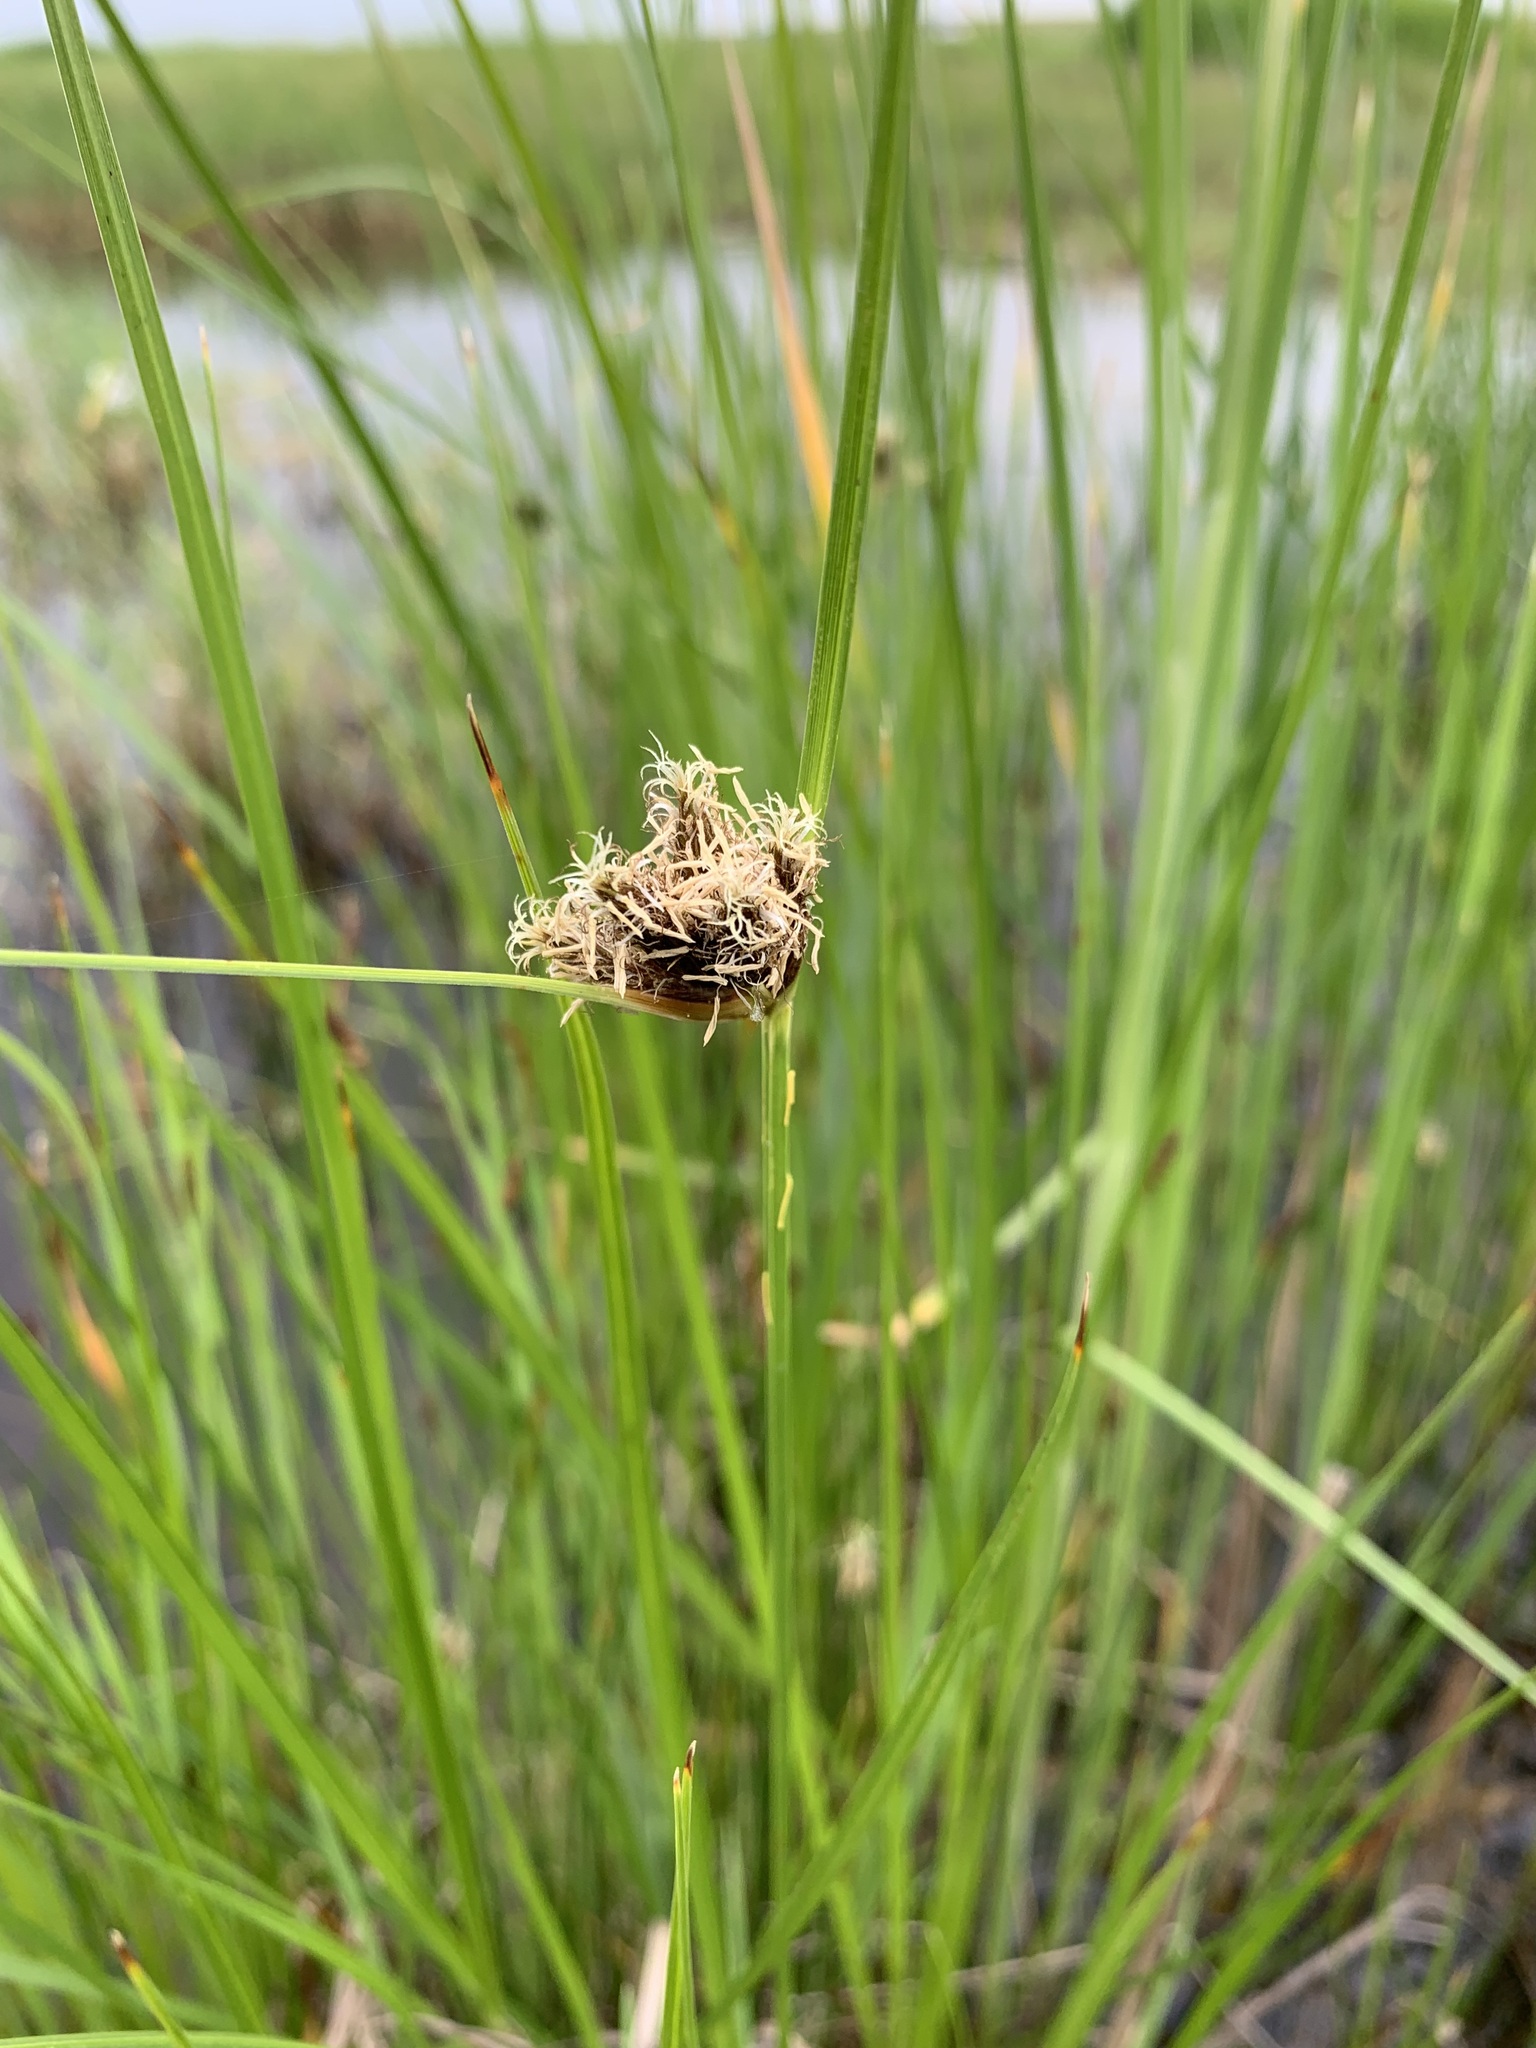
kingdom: Plantae
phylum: Tracheophyta
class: Liliopsida
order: Poales
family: Cyperaceae
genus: Bolboschoenus
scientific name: Bolboschoenus maritimus
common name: Sea club-rush
